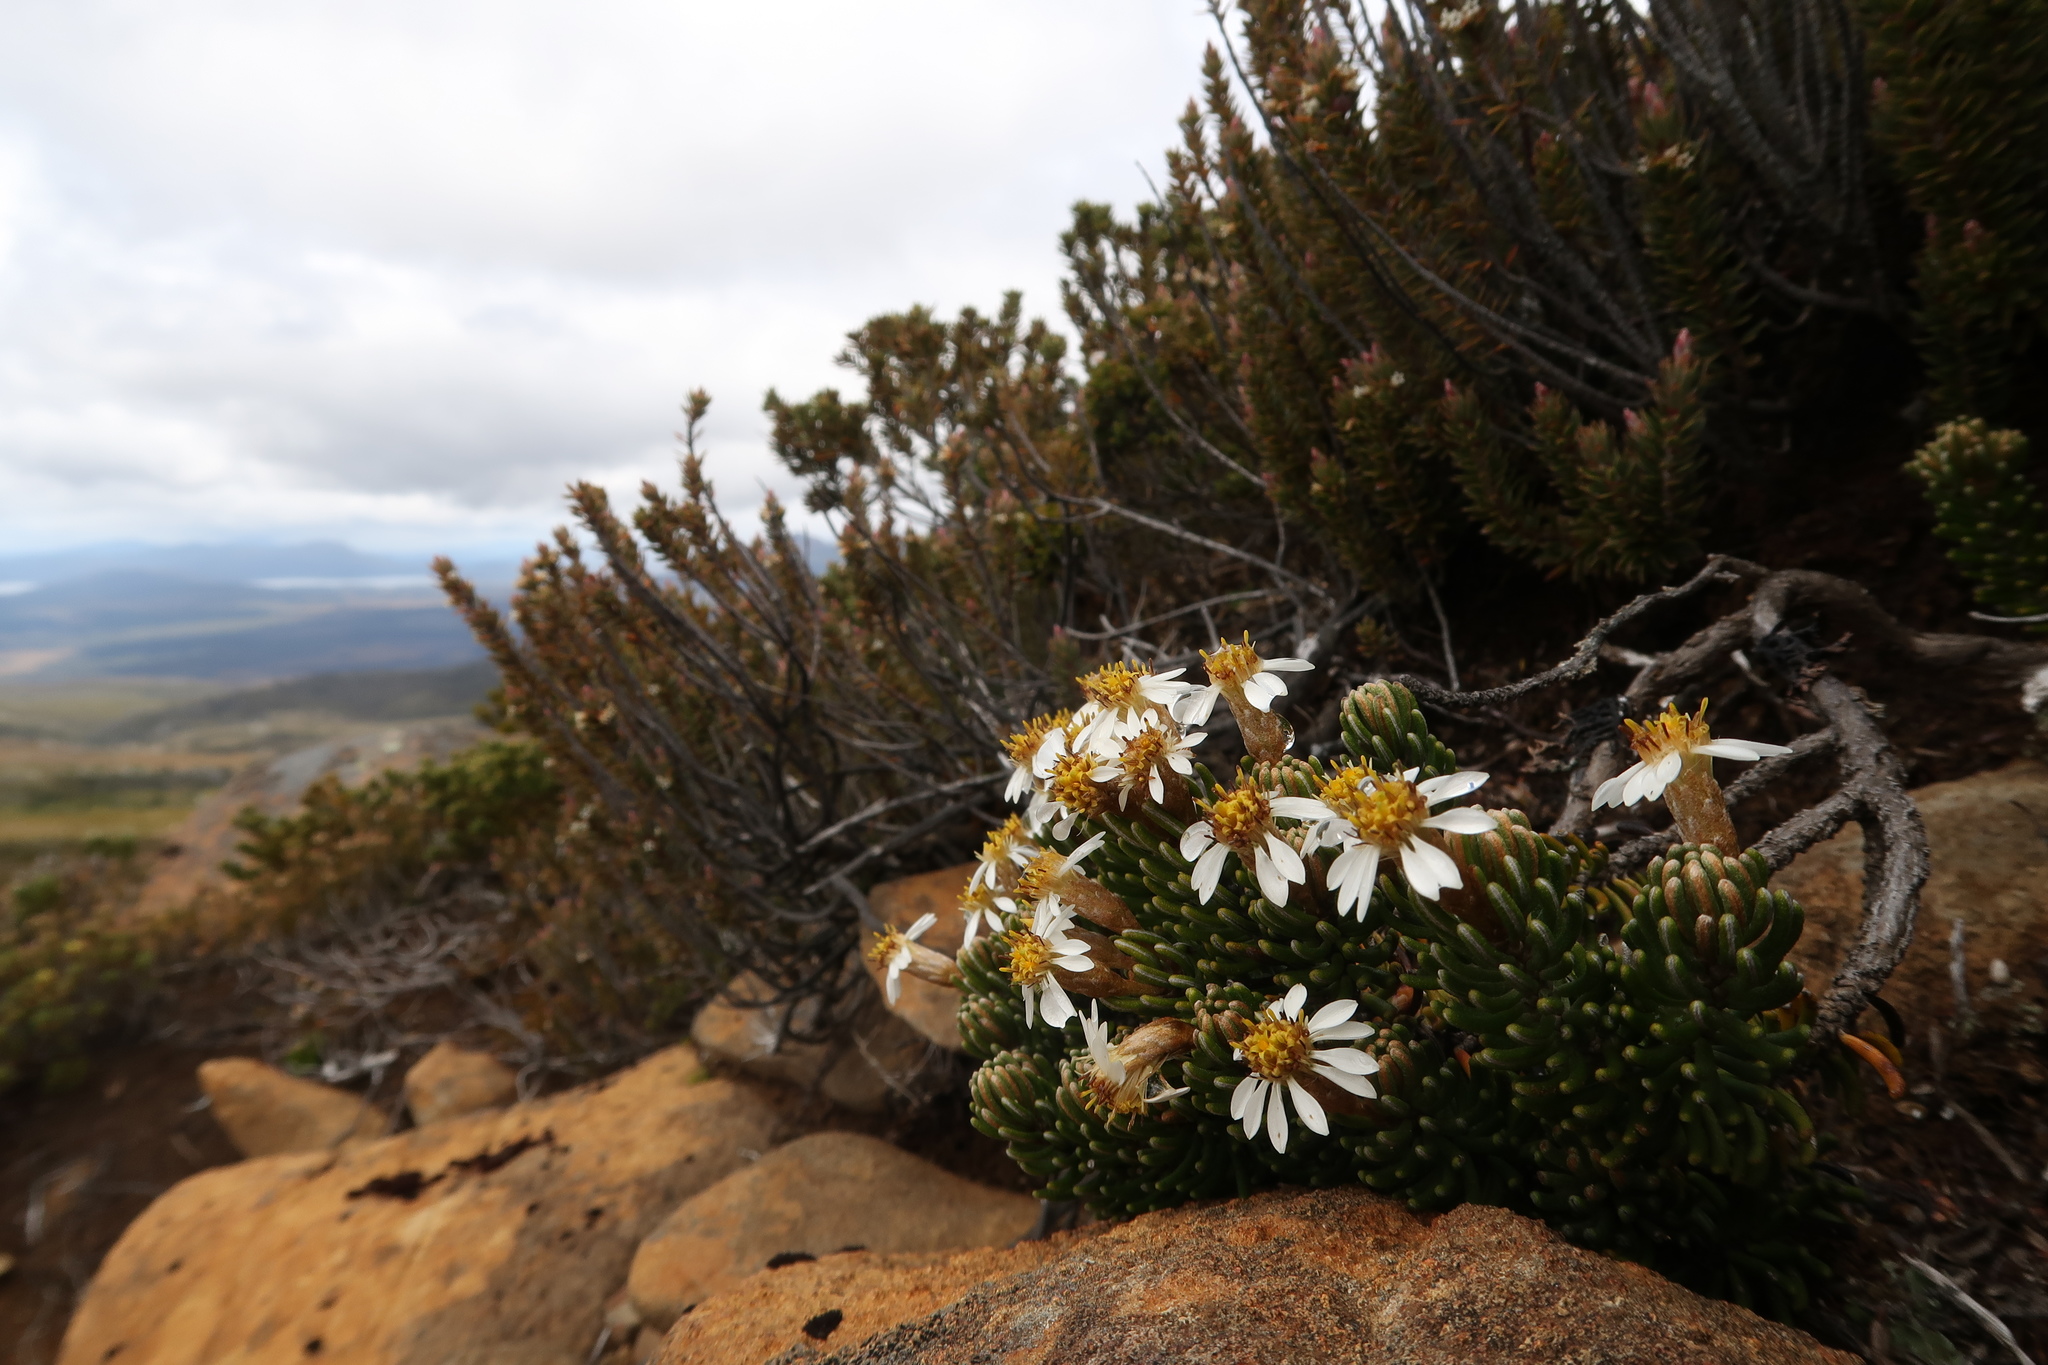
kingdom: Plantae
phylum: Tracheophyta
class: Magnoliopsida
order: Asterales
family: Asteraceae
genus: Olearia
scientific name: Olearia ledifolia
